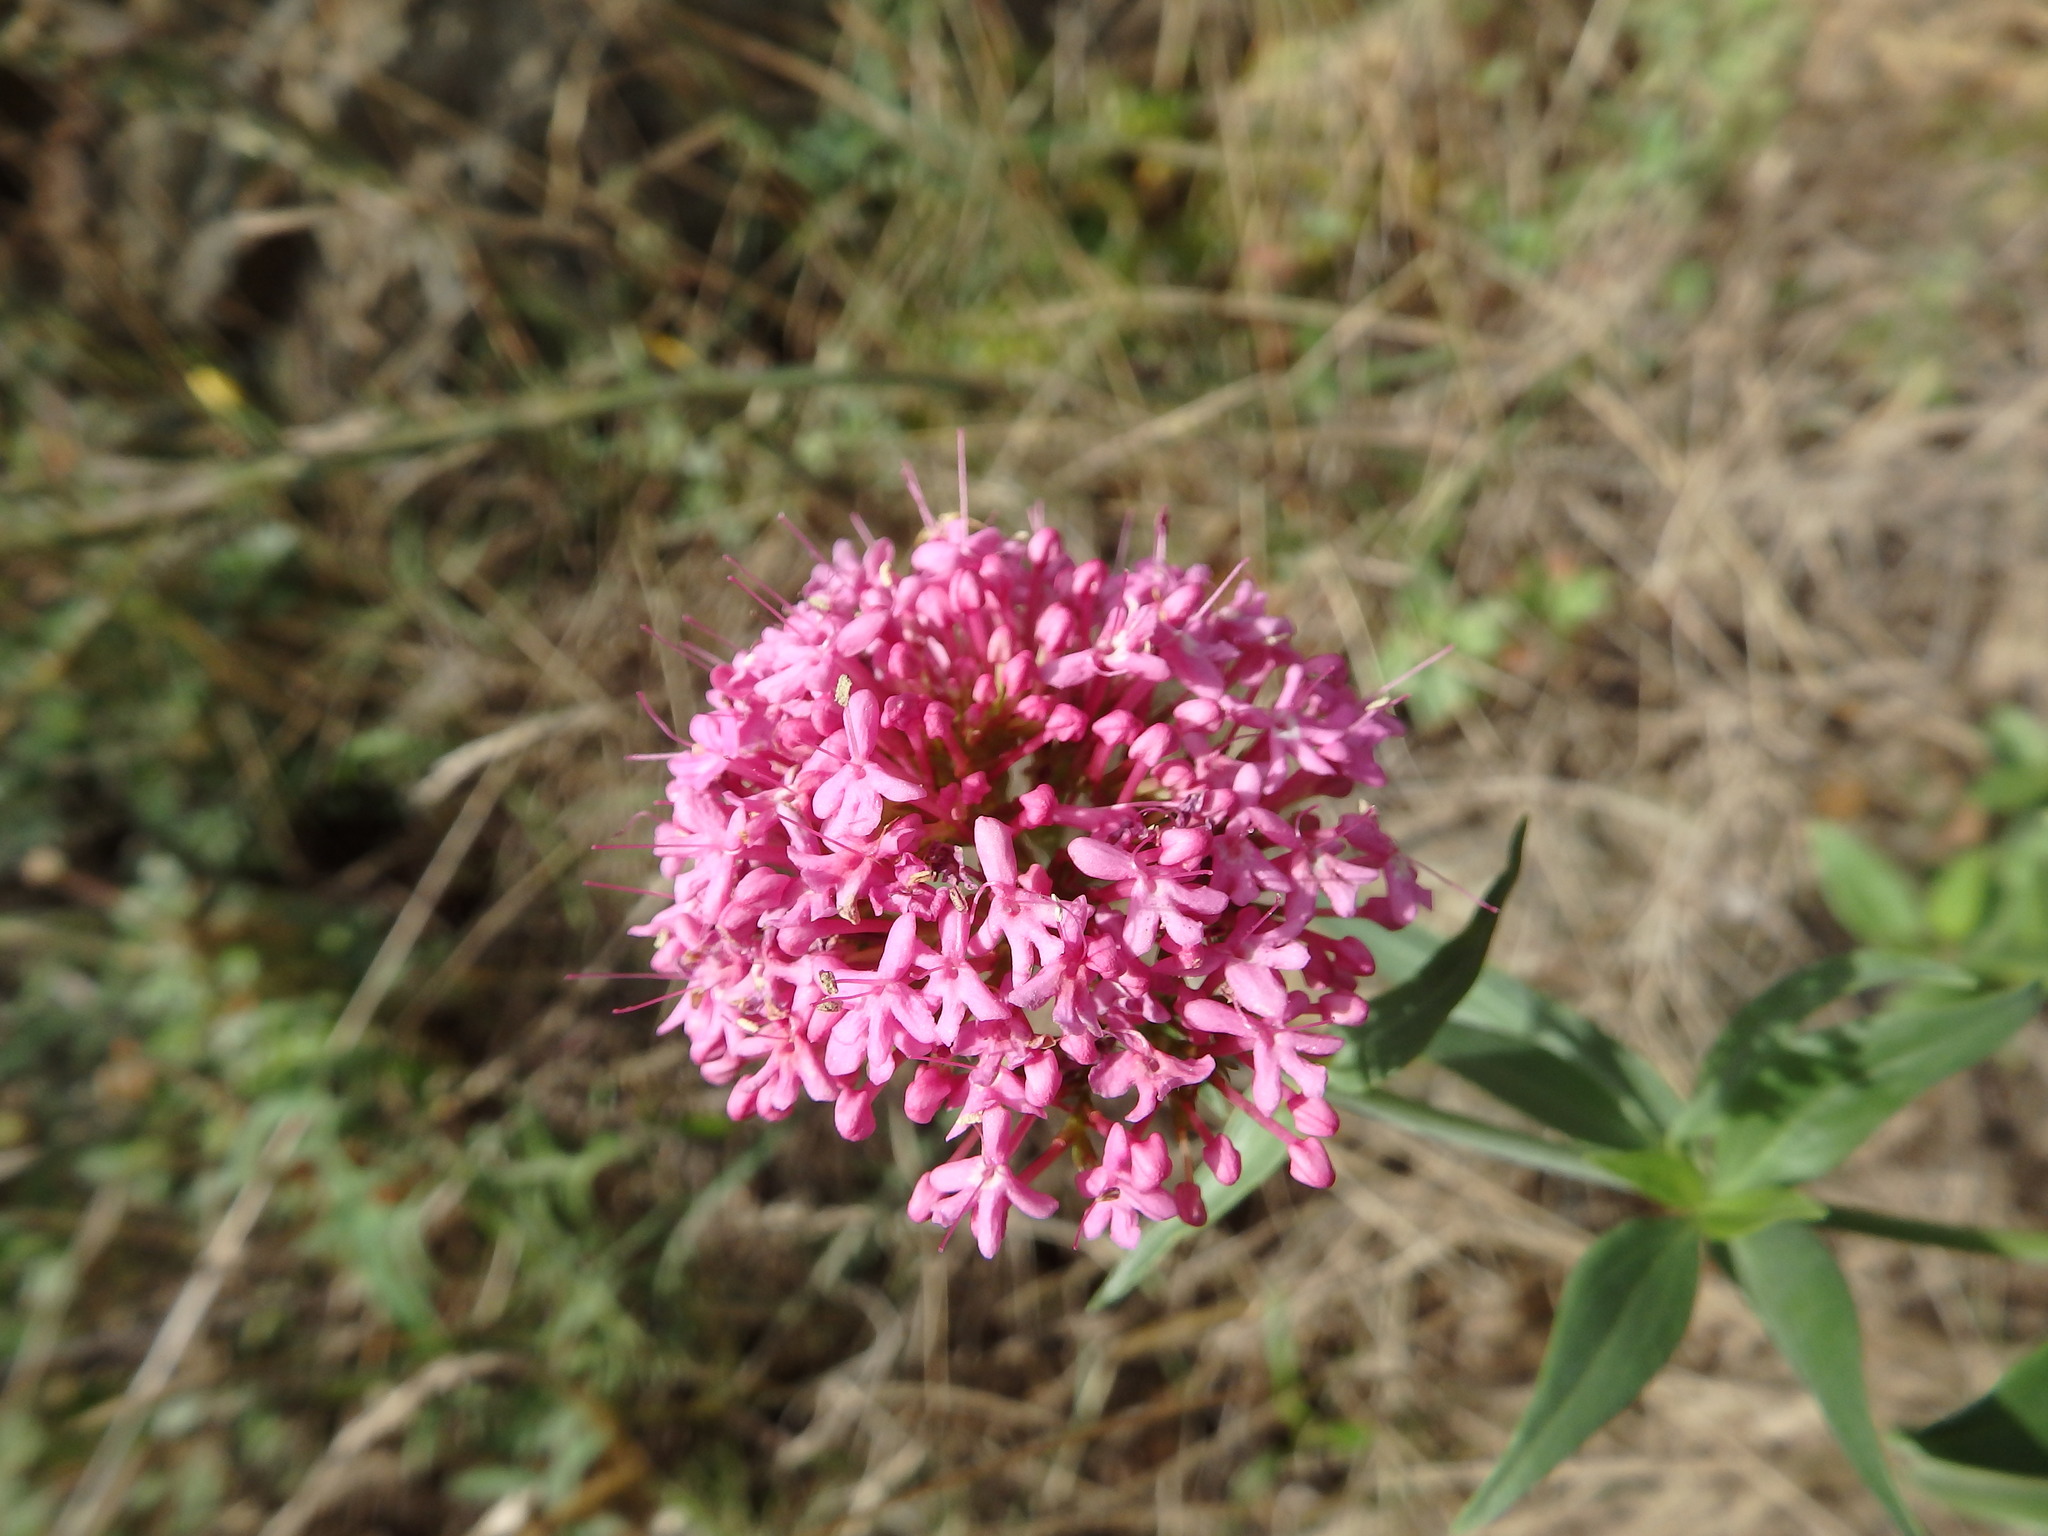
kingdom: Plantae
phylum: Tracheophyta
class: Magnoliopsida
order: Dipsacales
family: Caprifoliaceae
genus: Centranthus
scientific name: Centranthus ruber
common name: Red valerian
